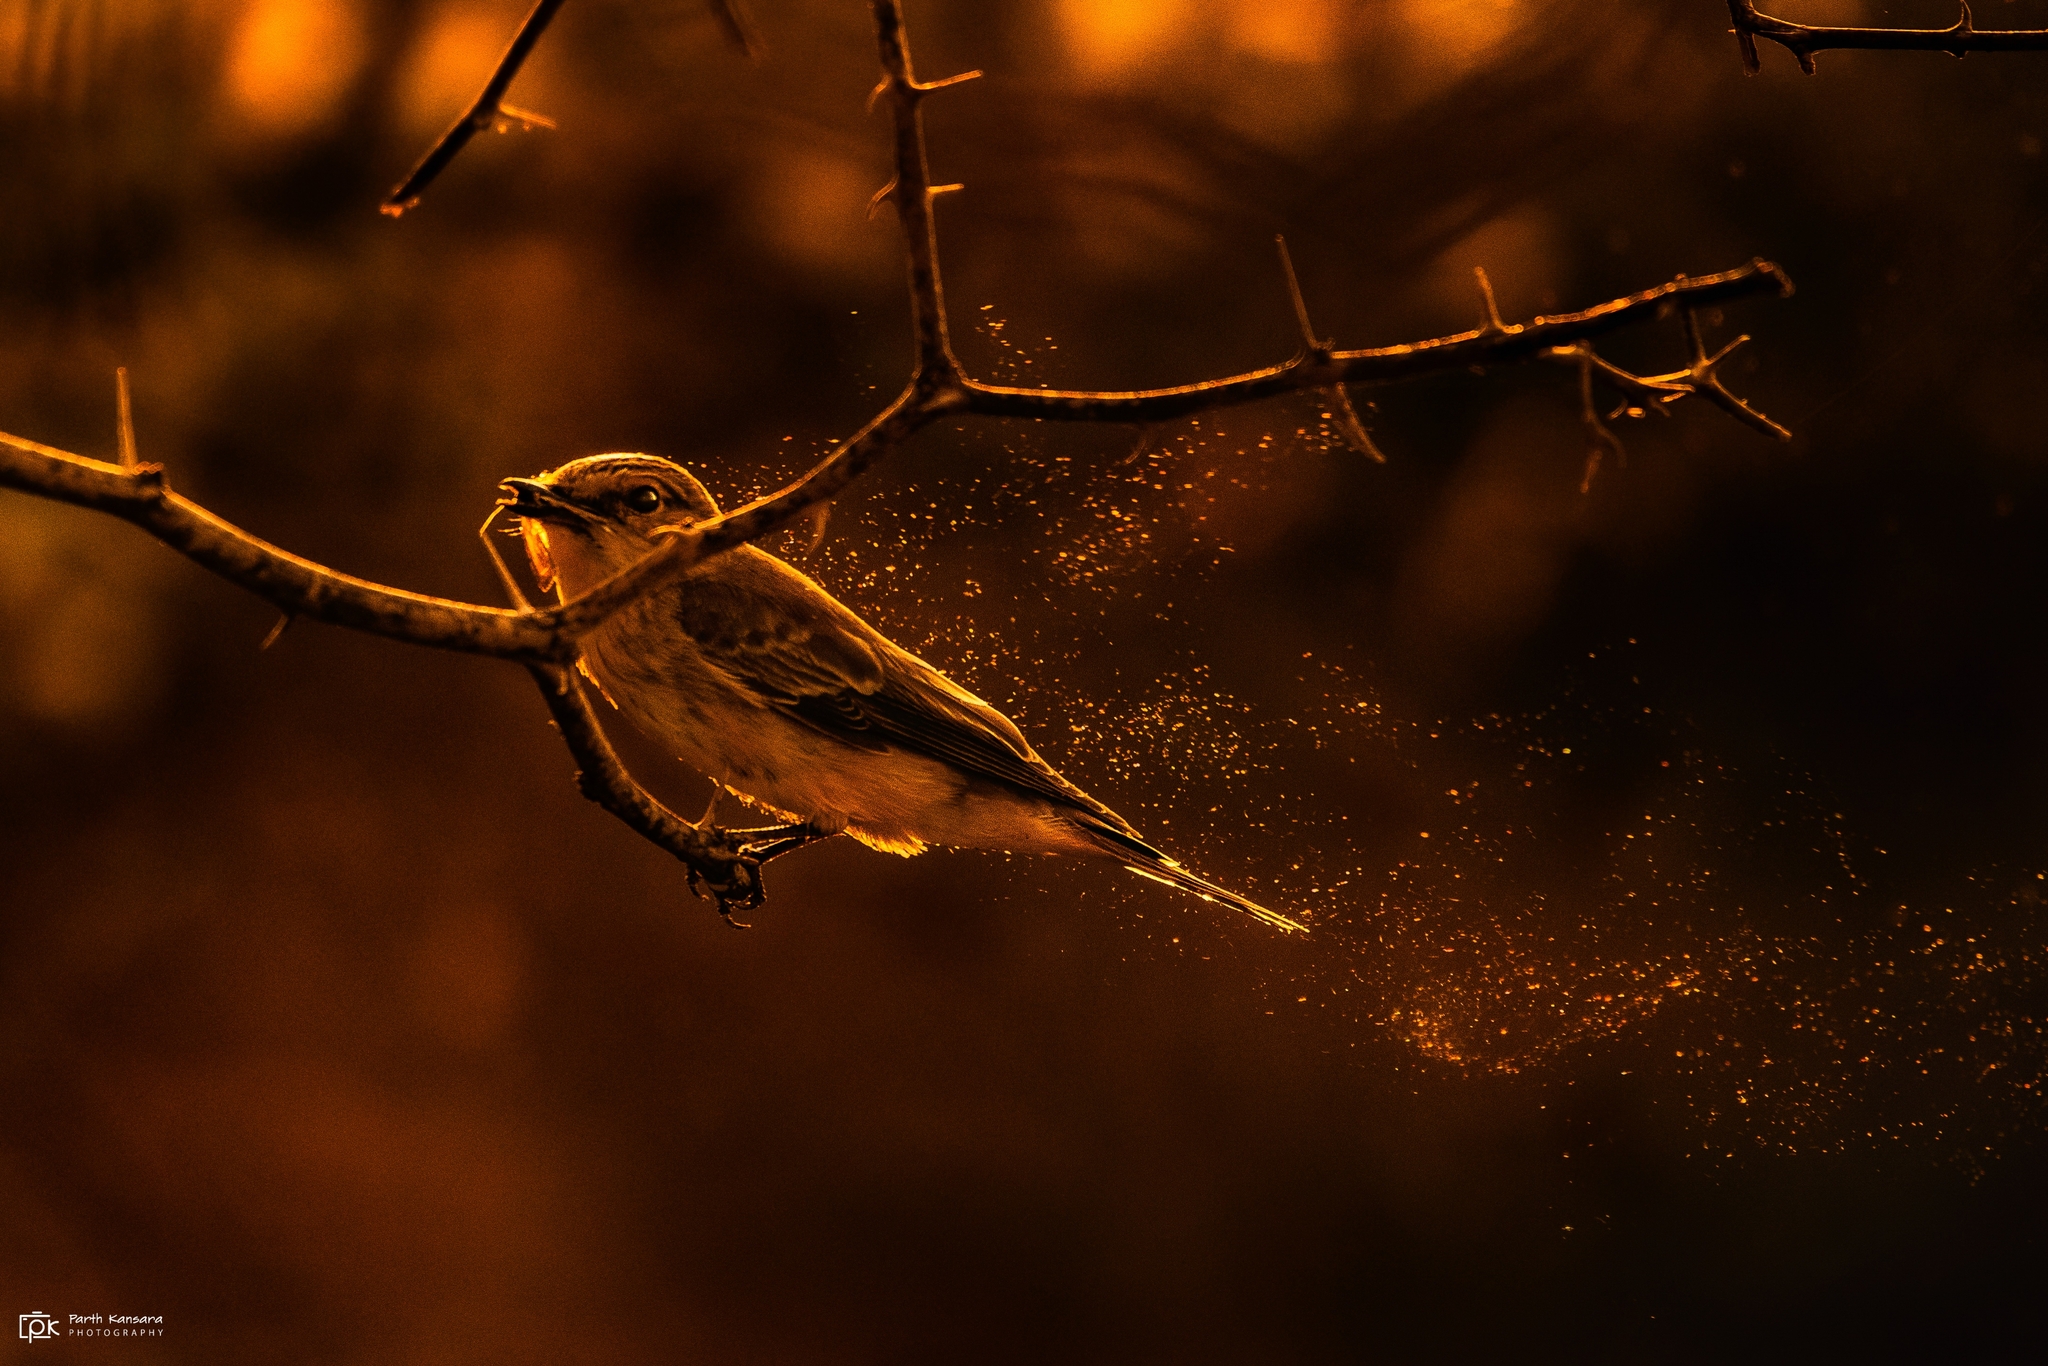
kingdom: Animalia
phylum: Chordata
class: Aves
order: Passeriformes
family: Muscicapidae
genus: Muscicapa
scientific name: Muscicapa striata
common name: Spotted flycatcher
